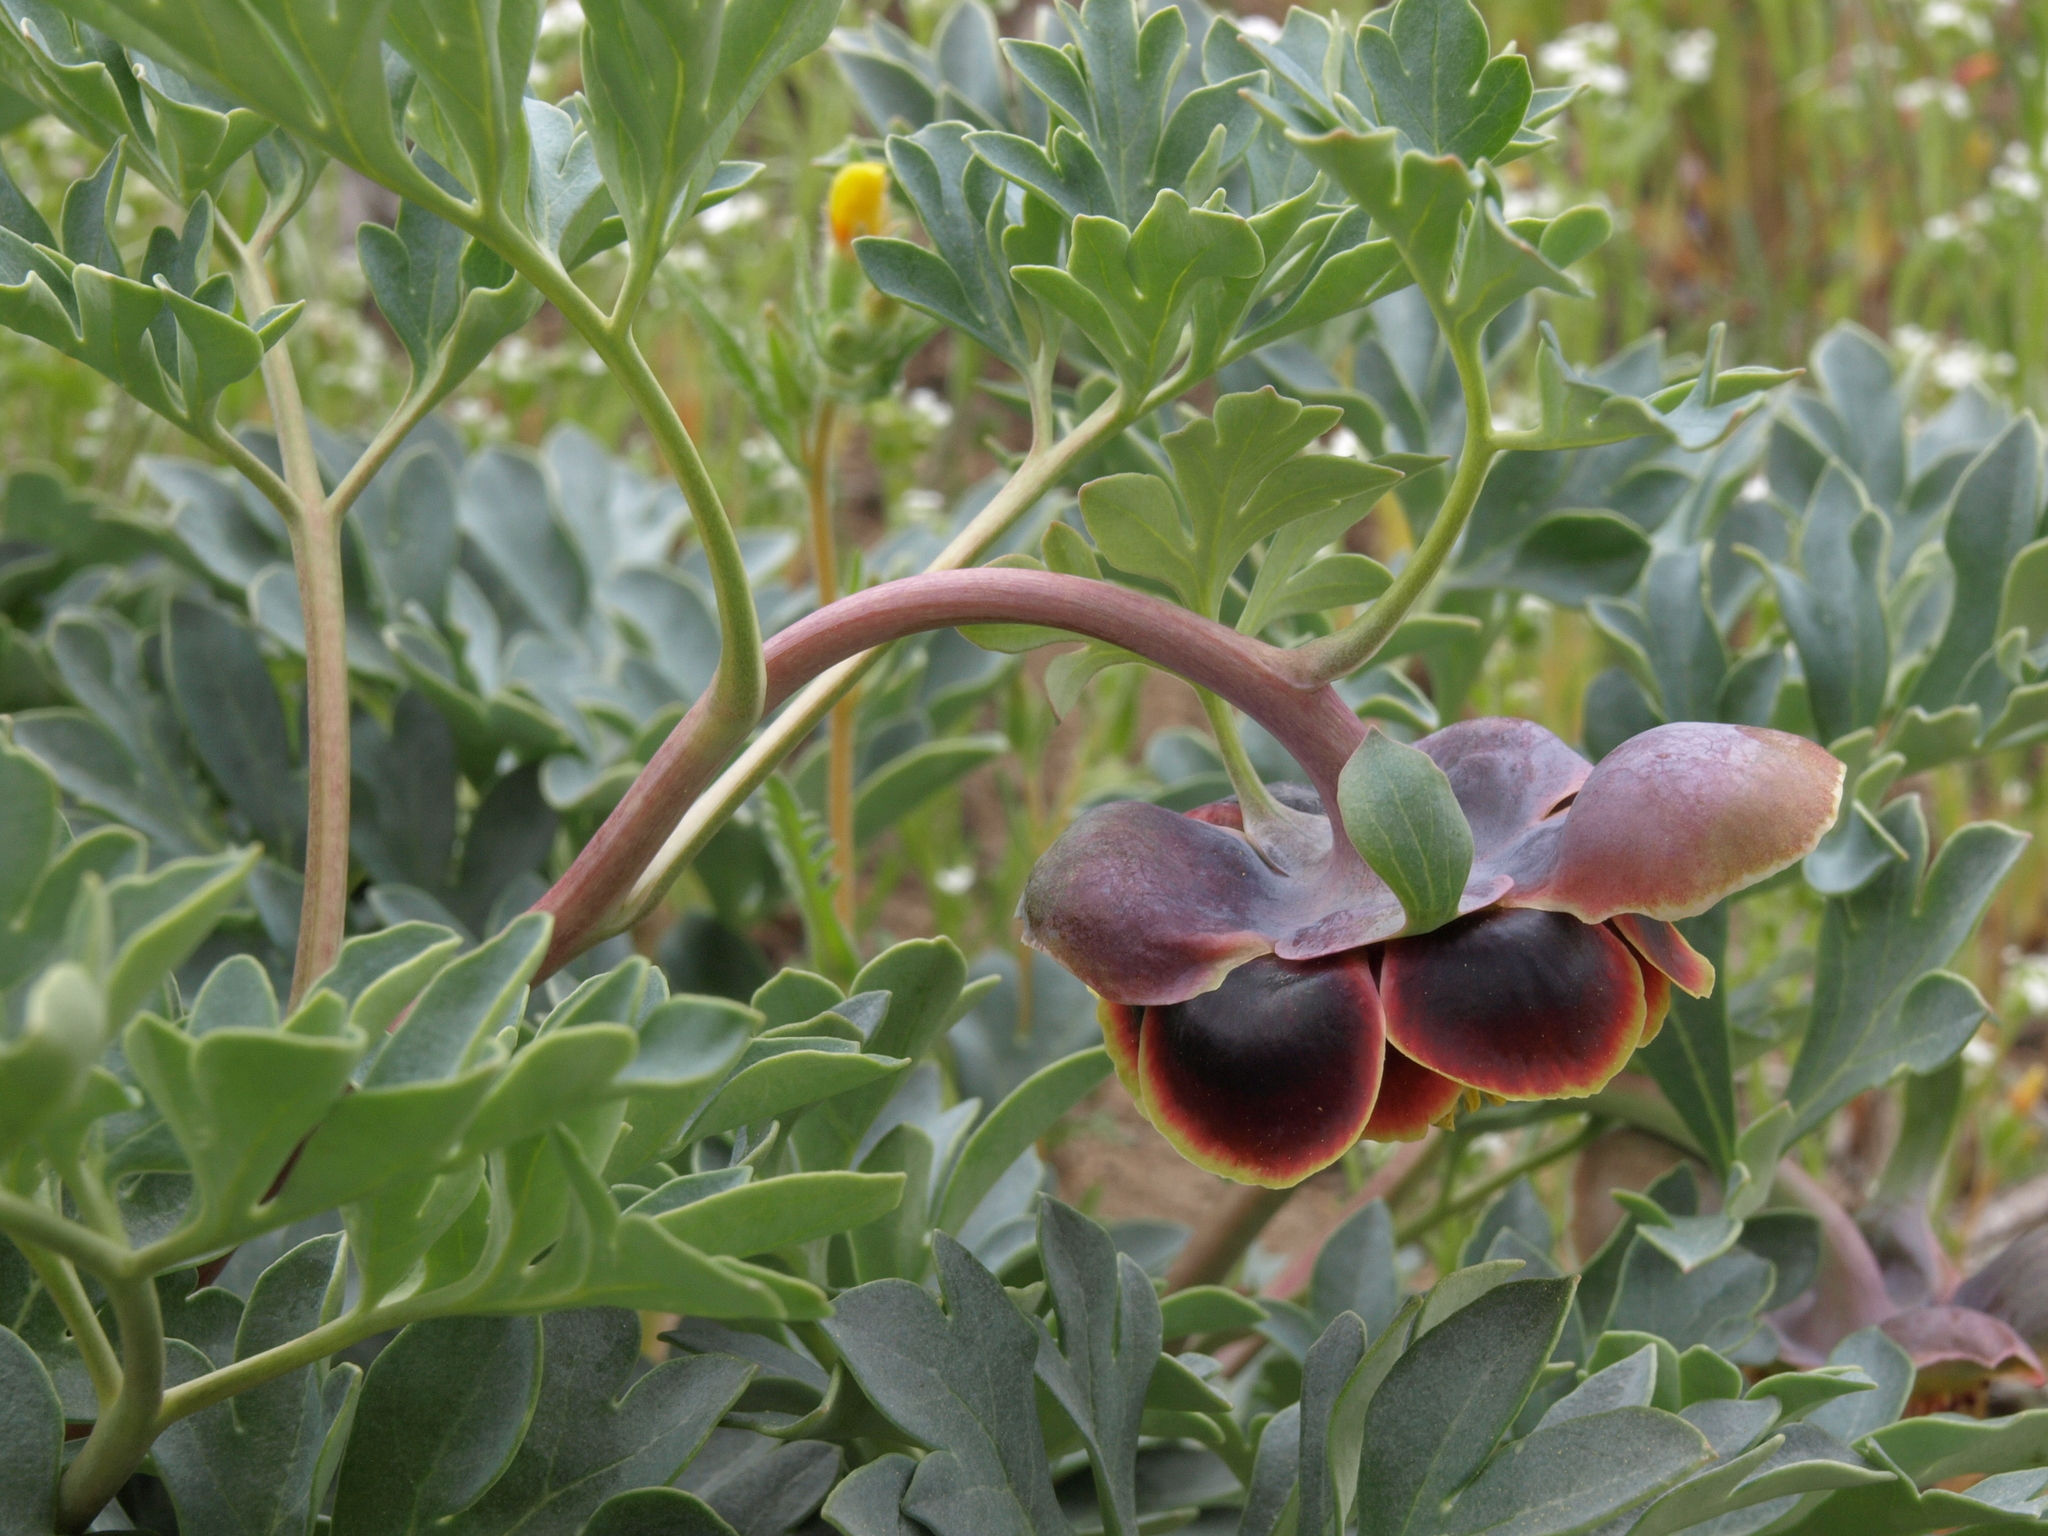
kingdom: Plantae
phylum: Tracheophyta
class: Magnoliopsida
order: Saxifragales
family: Paeoniaceae
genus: Paeonia
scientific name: Paeonia brownii
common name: Brown's peony
